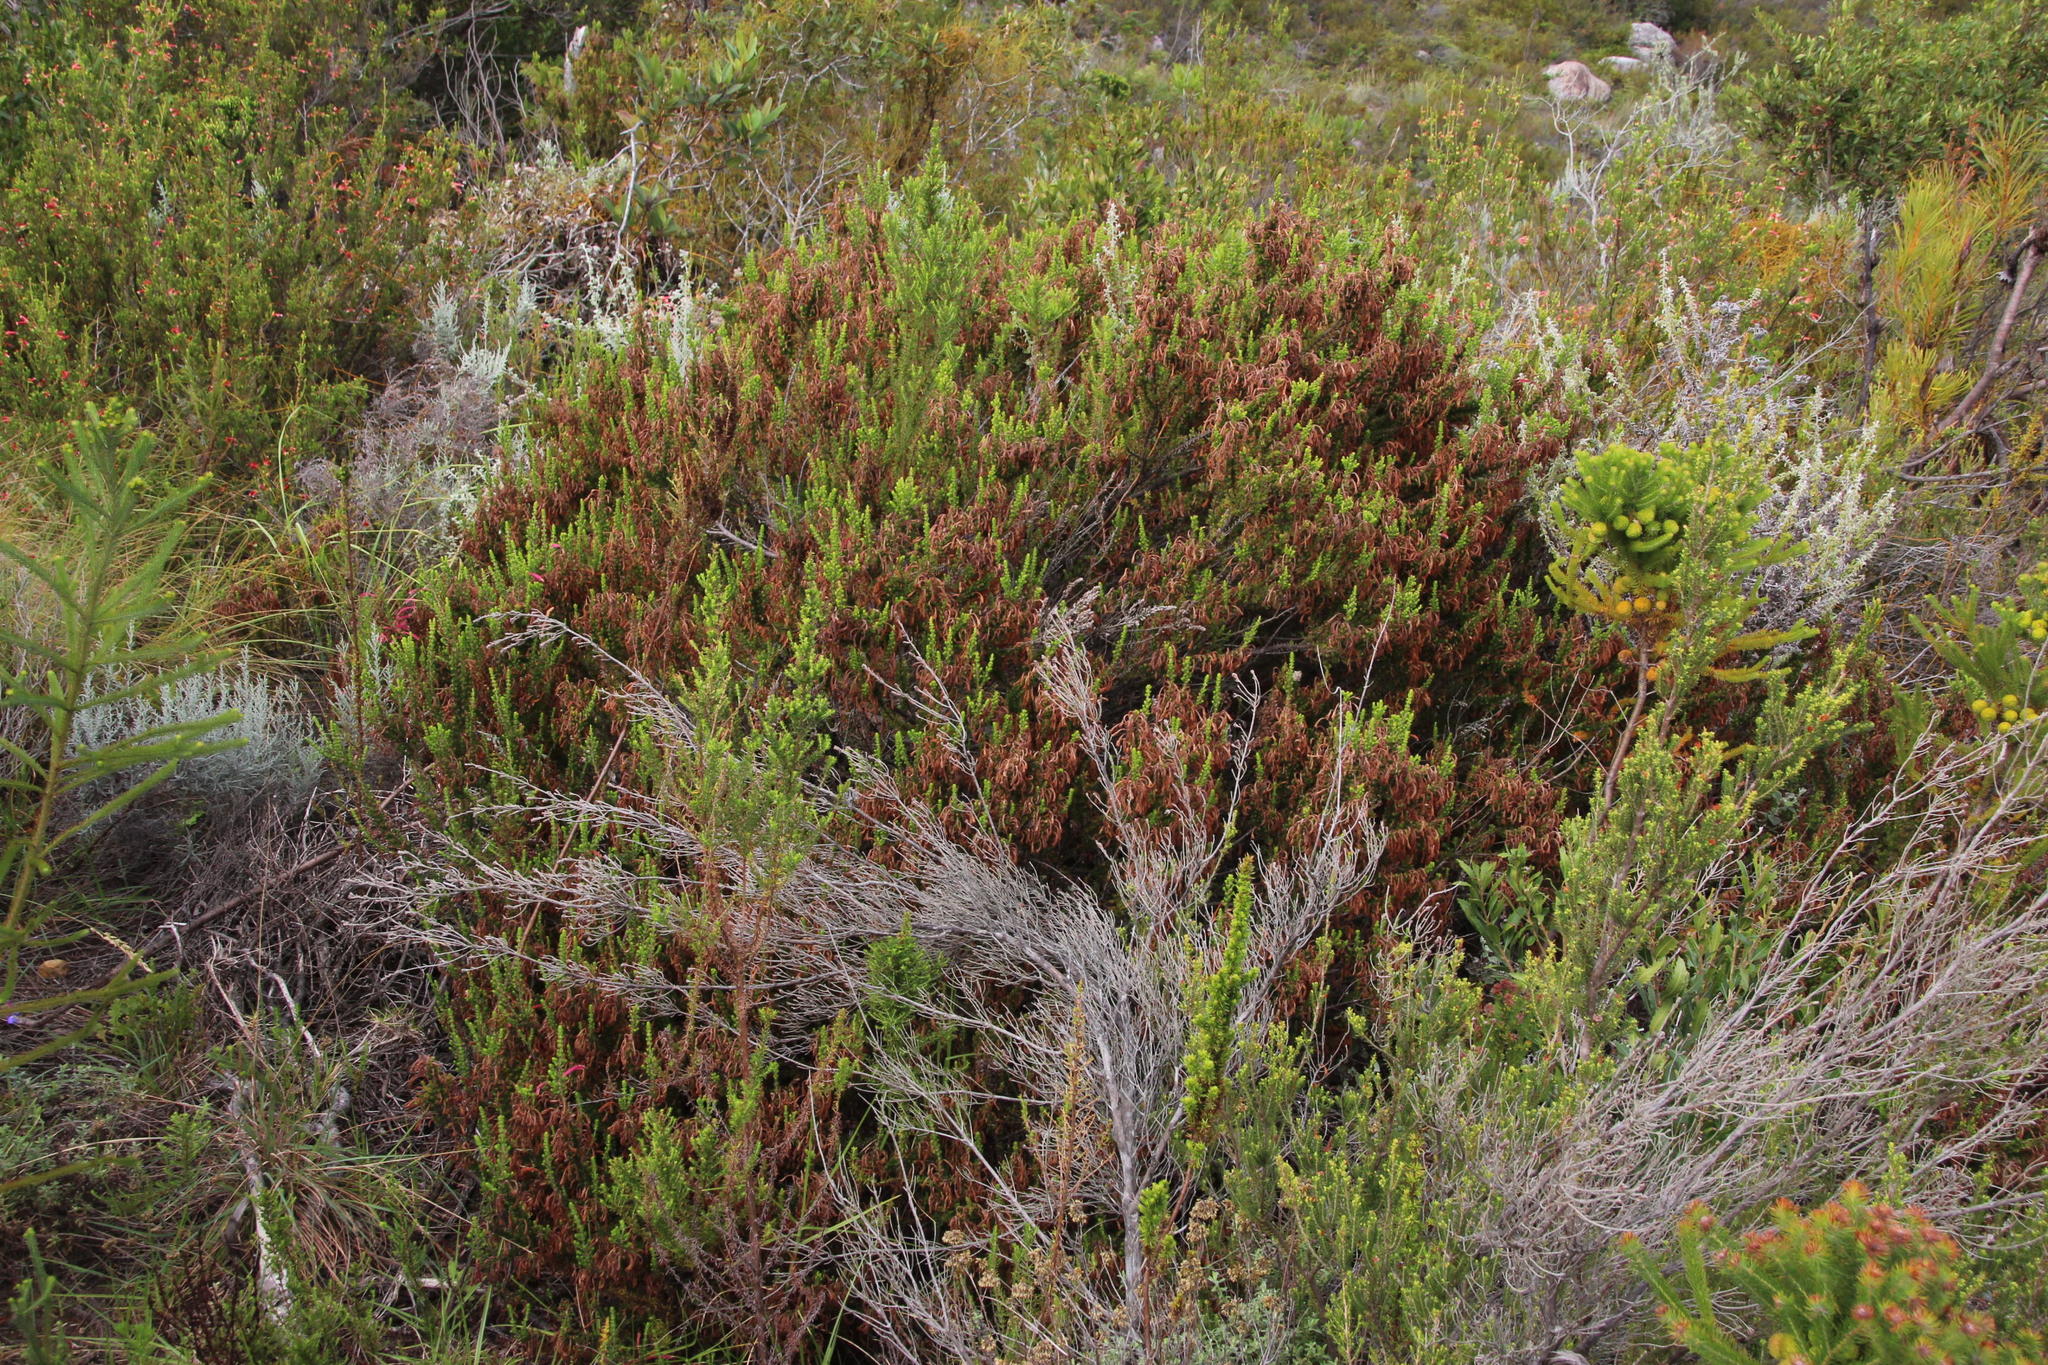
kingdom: Plantae
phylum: Tracheophyta
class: Magnoliopsida
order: Ericales
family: Ericaceae
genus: Erica
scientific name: Erica densifolia
